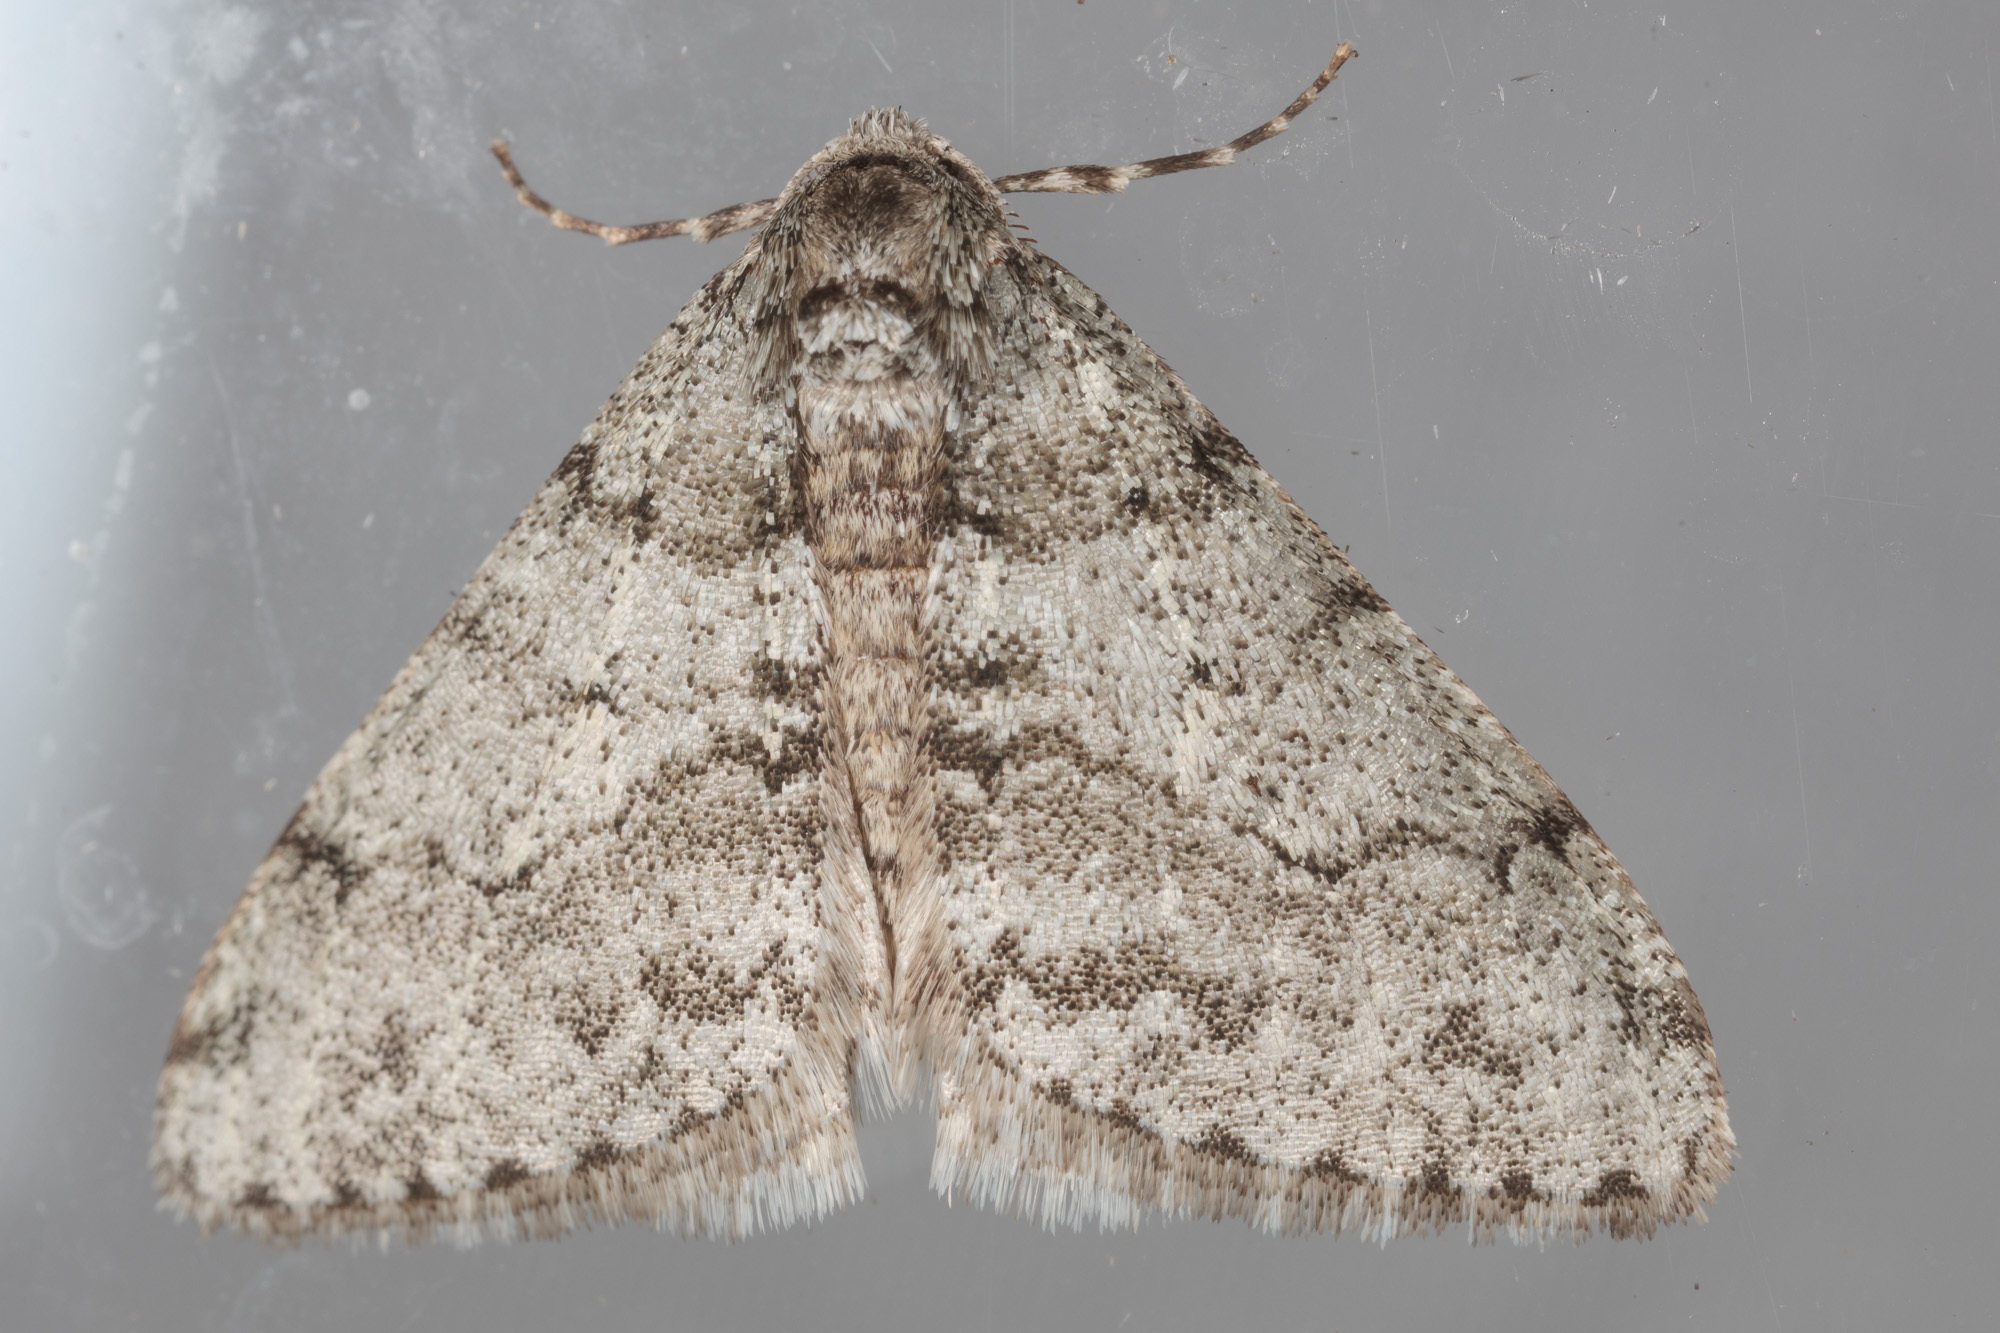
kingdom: Animalia
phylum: Arthropoda
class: Insecta
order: Lepidoptera
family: Geometridae
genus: Phigalia
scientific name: Phigalia strigataria
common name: Small phigalia
